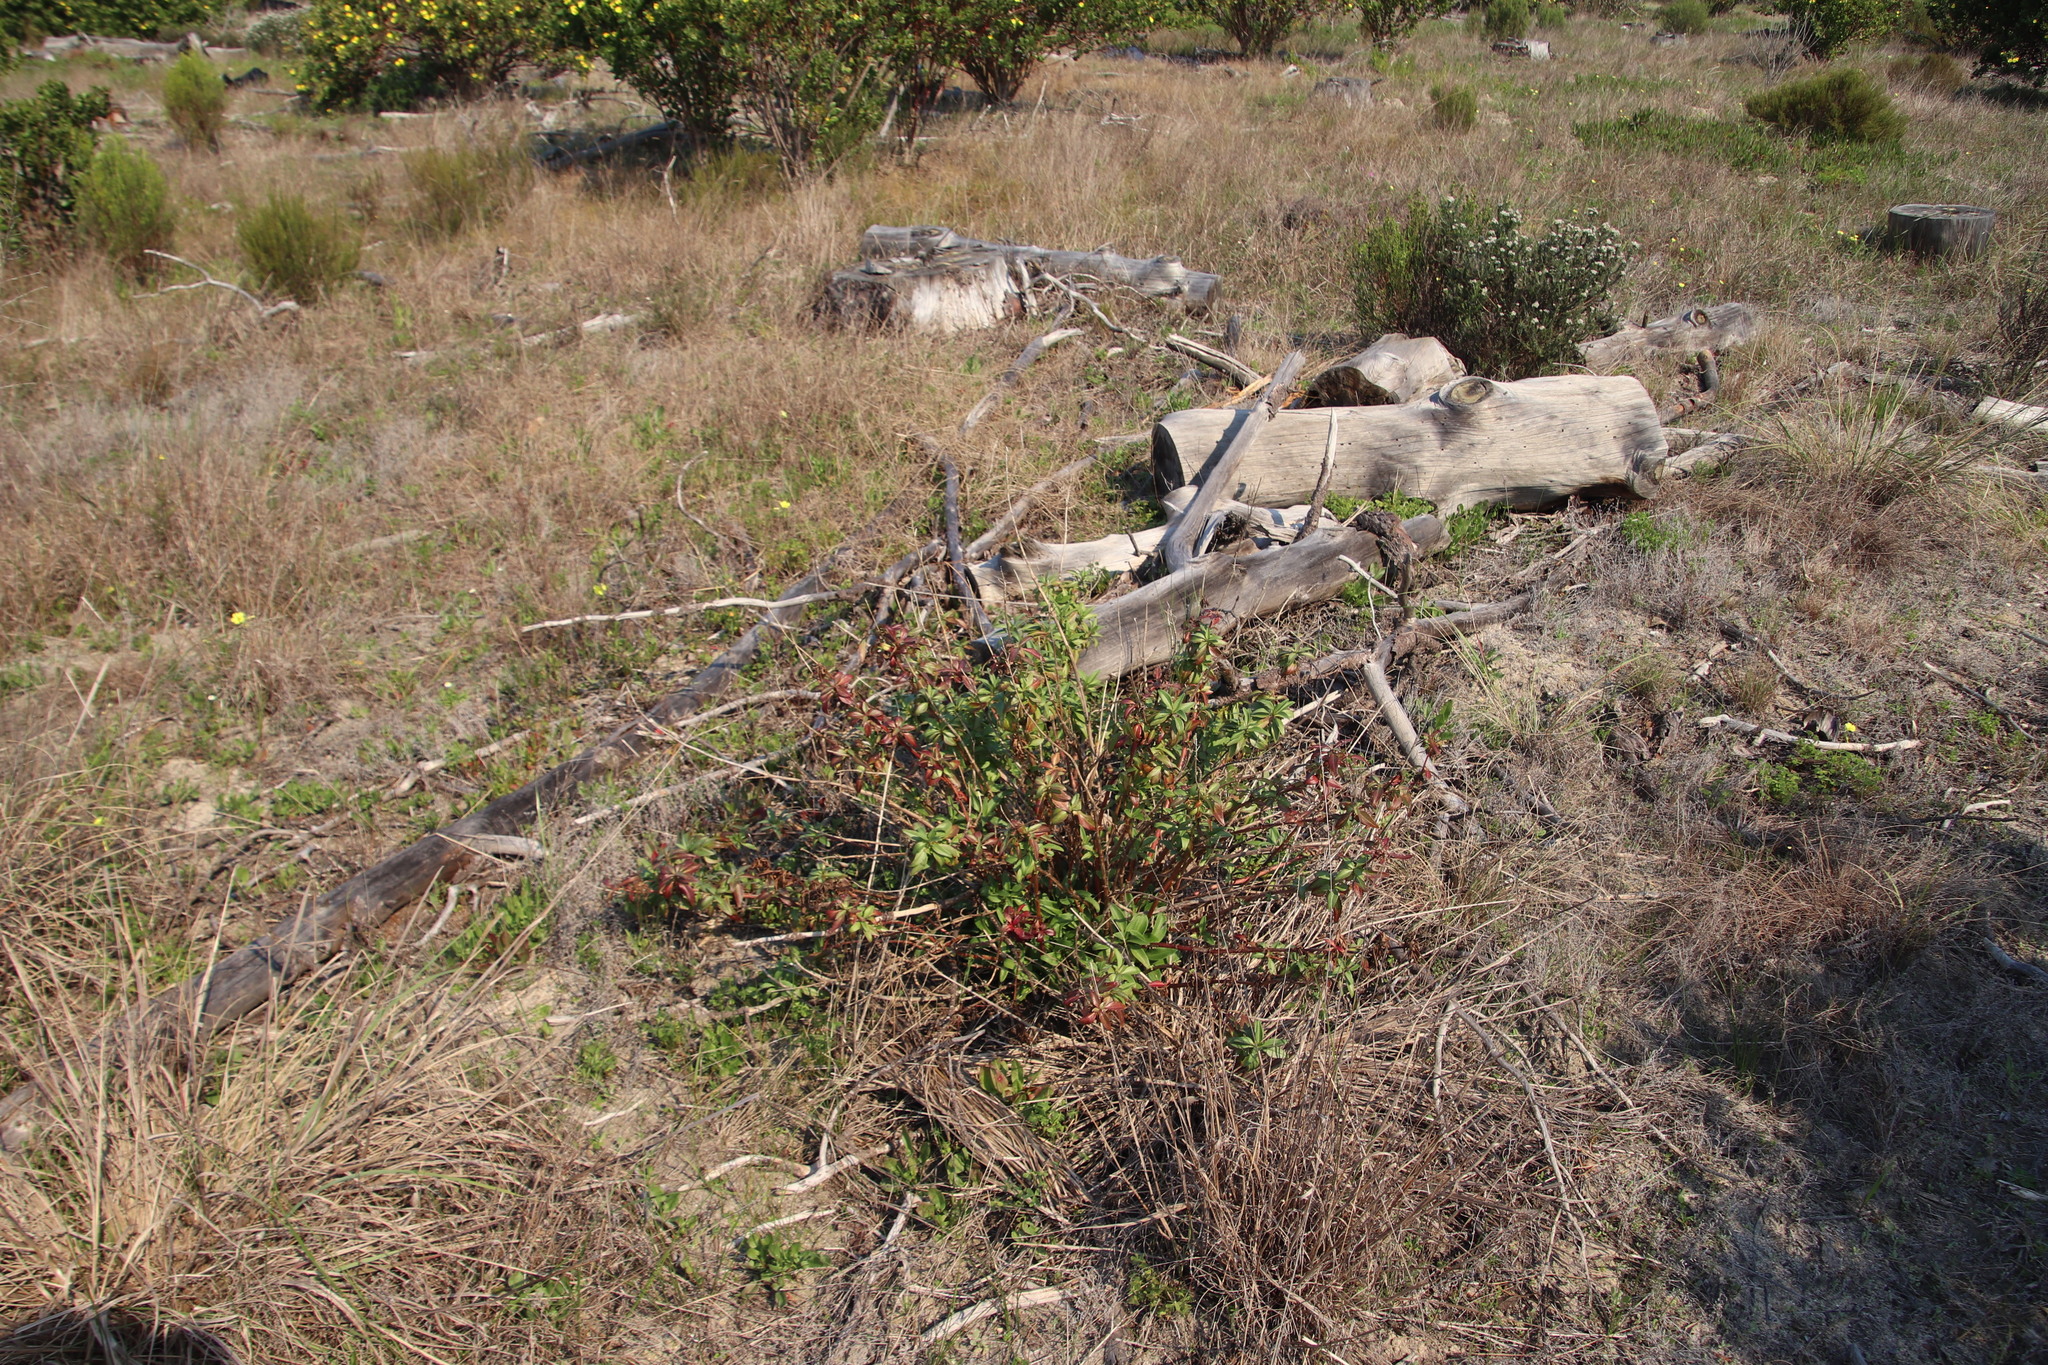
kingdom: Plantae
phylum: Tracheophyta
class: Magnoliopsida
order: Dipsacales
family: Caprifoliaceae
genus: Centranthus
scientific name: Centranthus ruber
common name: Red valerian
